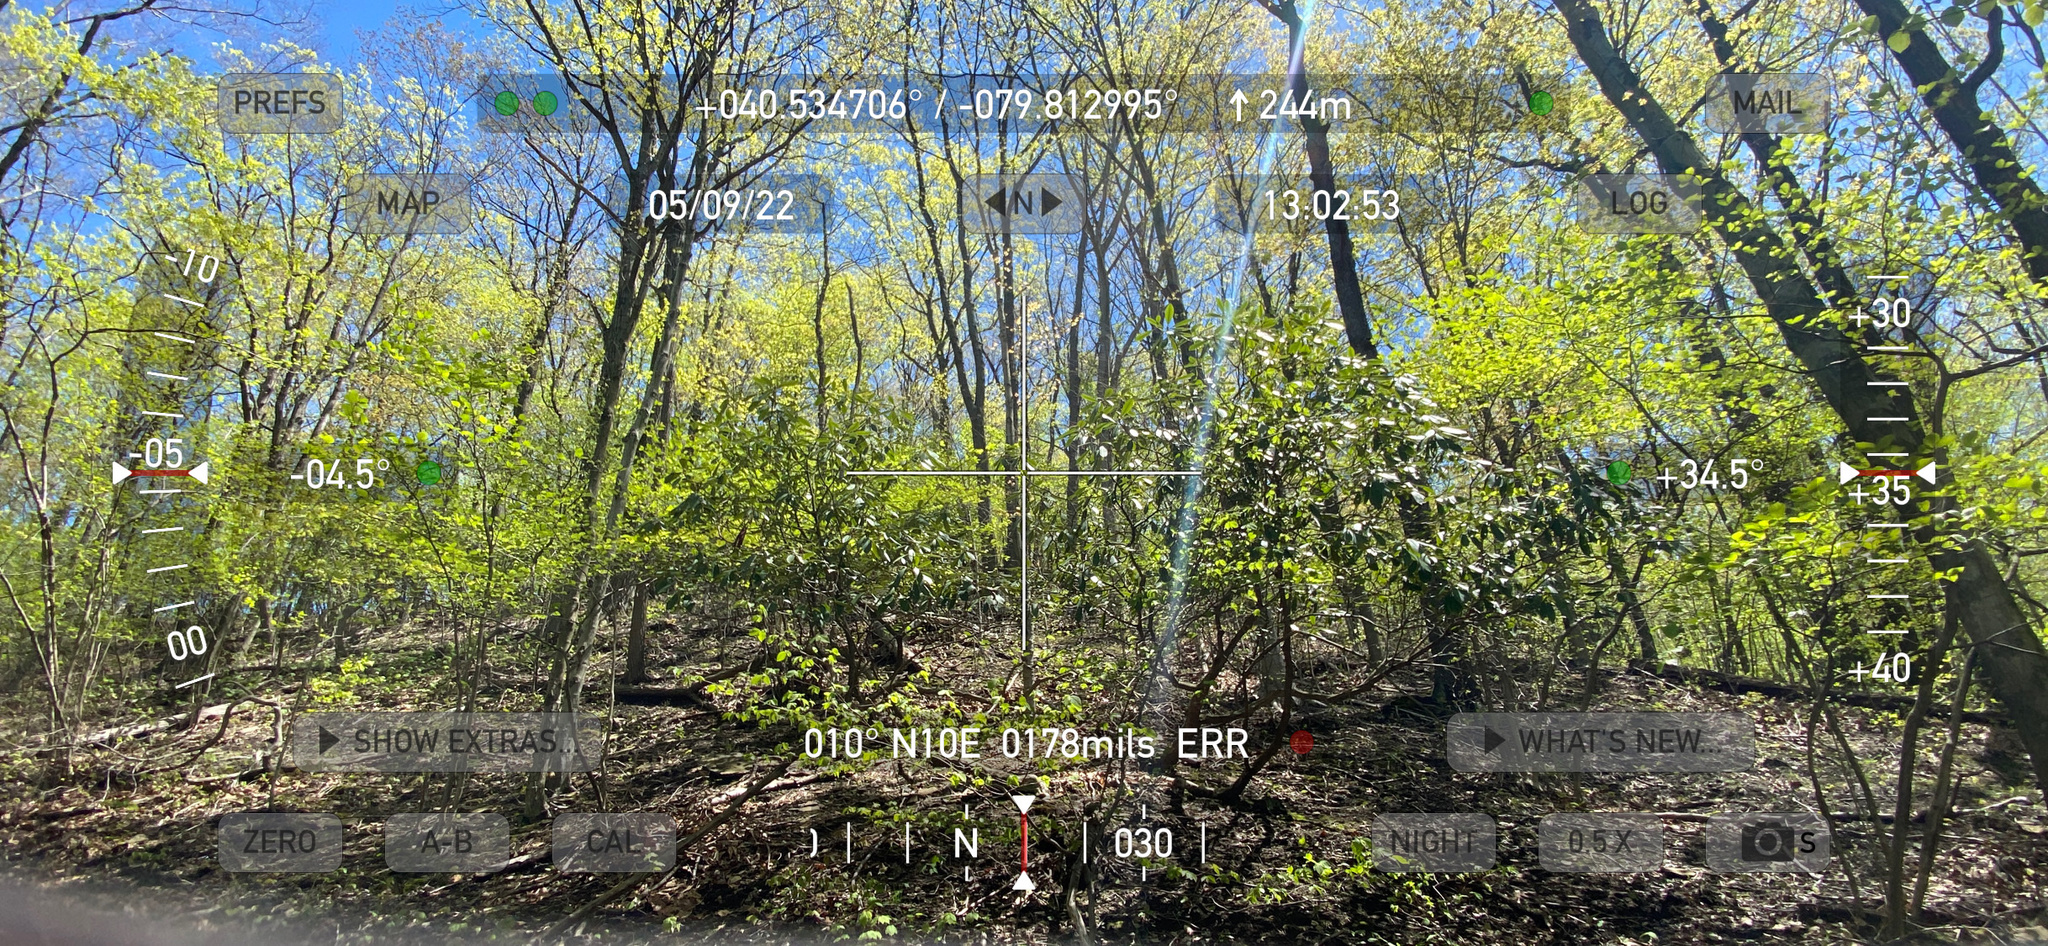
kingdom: Plantae
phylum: Tracheophyta
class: Magnoliopsida
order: Ericales
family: Ericaceae
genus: Rhododendron
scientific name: Rhododendron maximum
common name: Great rhododendron
